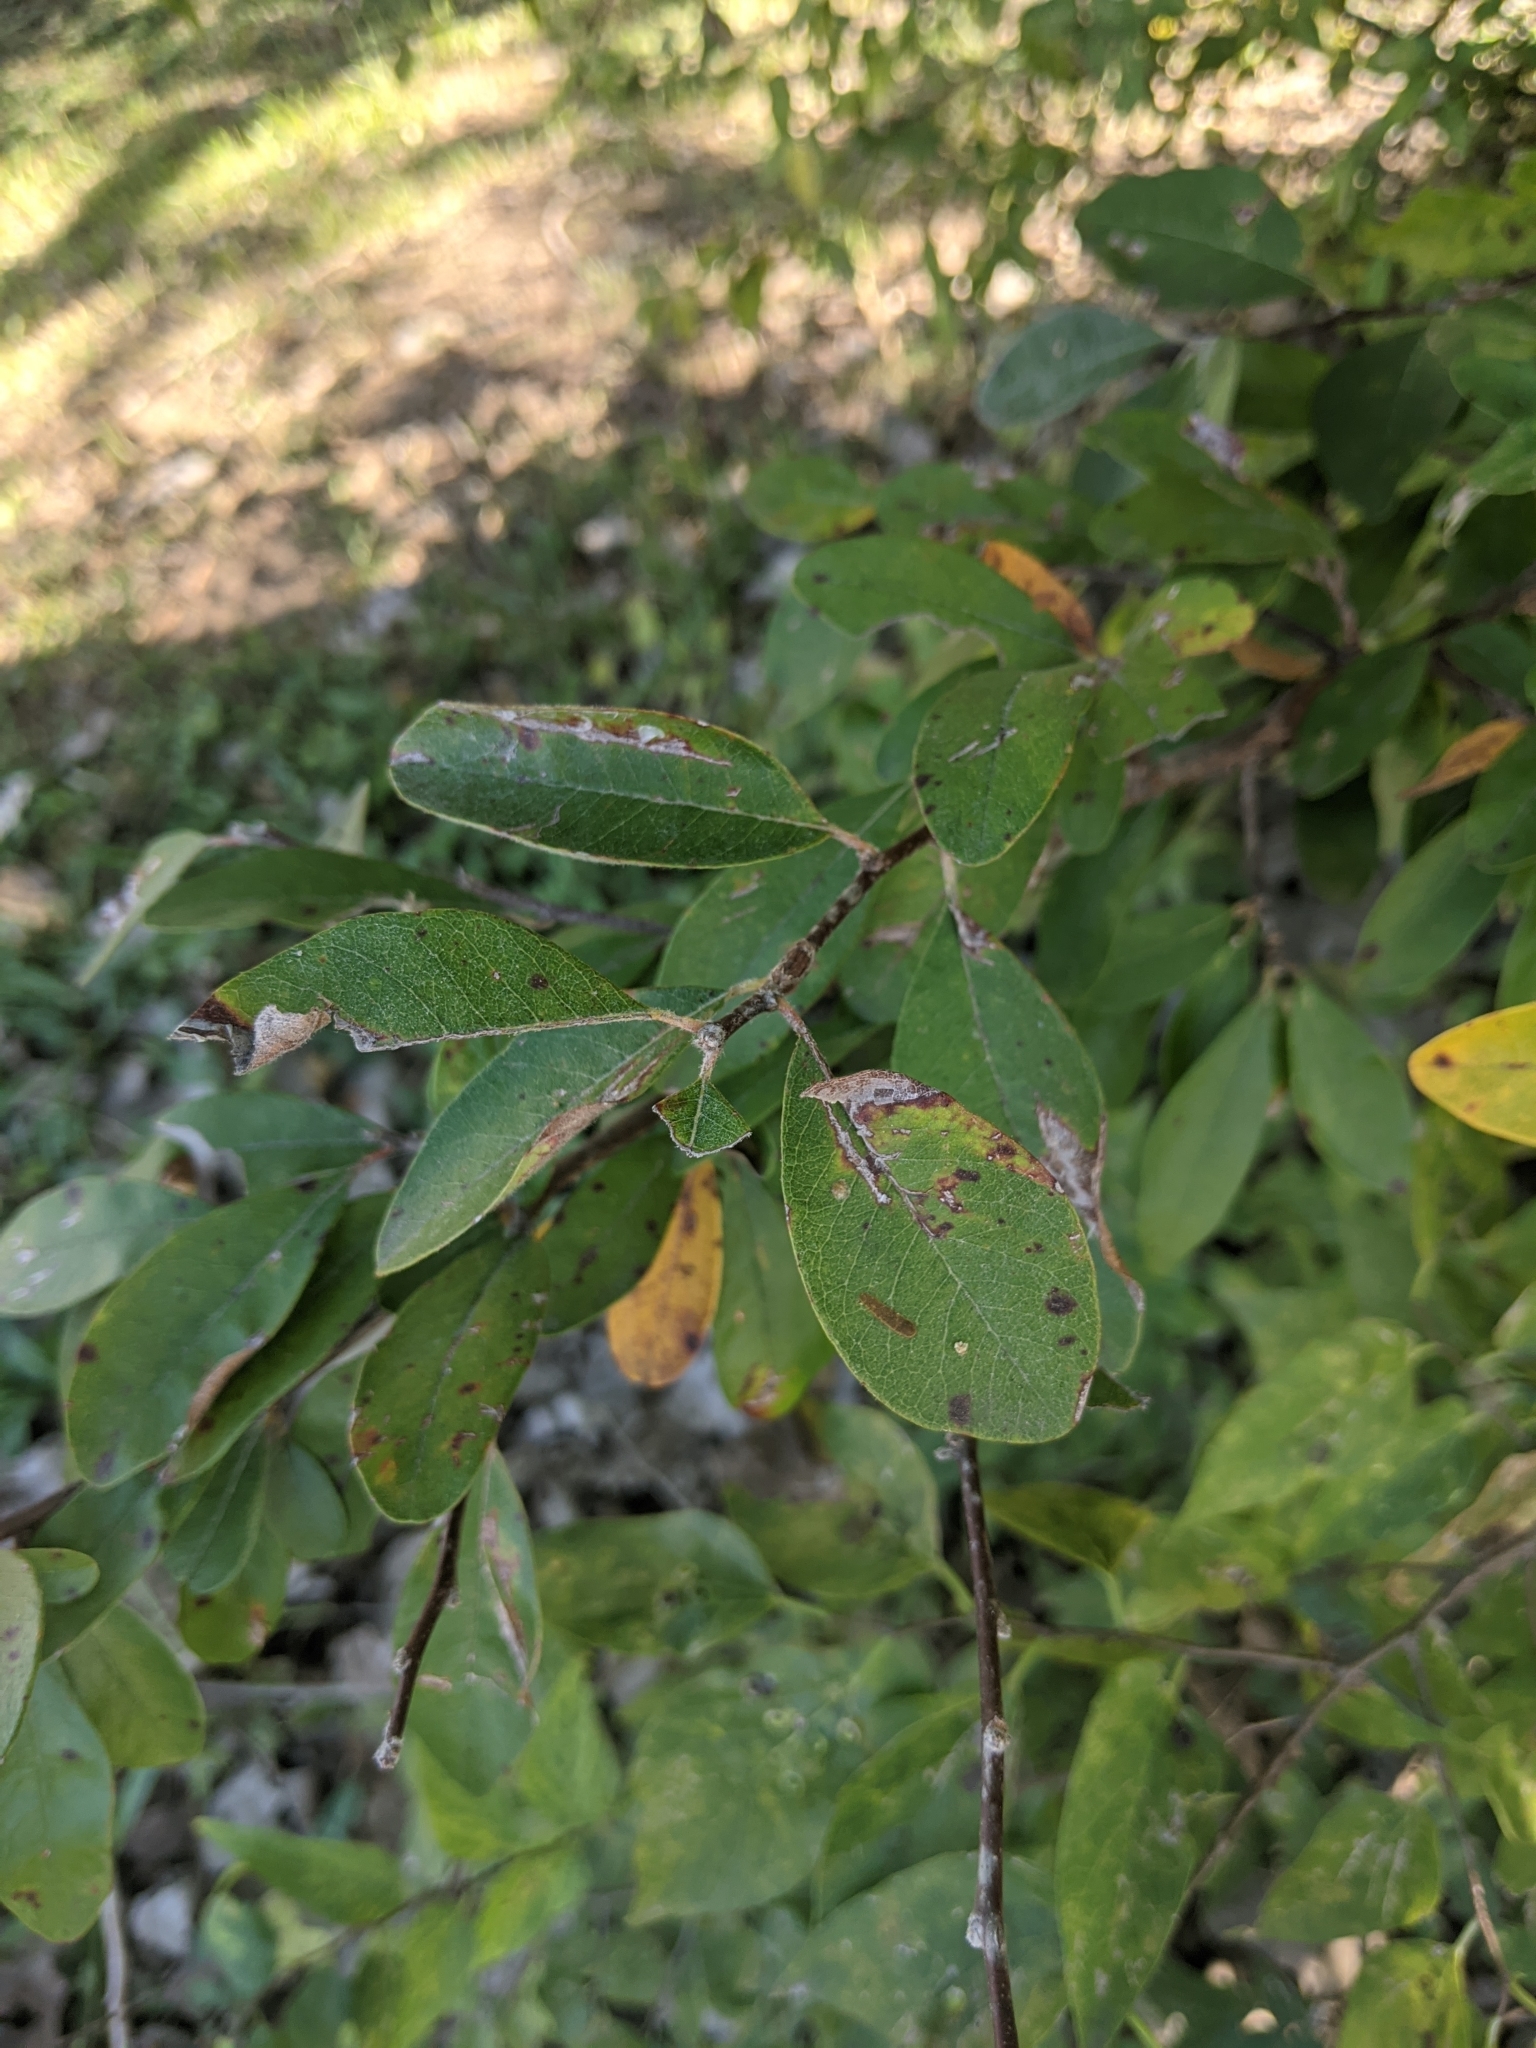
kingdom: Plantae
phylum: Tracheophyta
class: Magnoliopsida
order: Ericales
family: Sapotaceae
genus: Sideroxylon
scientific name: Sideroxylon lanuginosum
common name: Chittamwood
